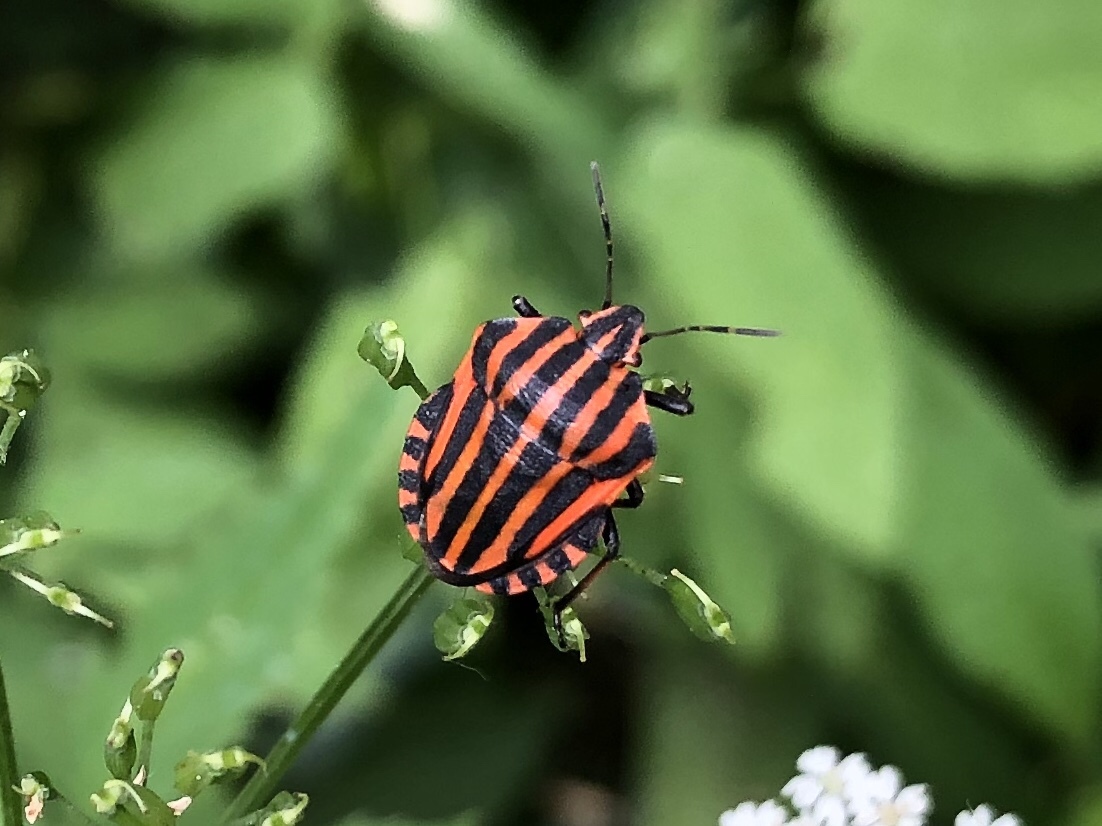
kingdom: Animalia
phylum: Arthropoda
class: Insecta
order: Hemiptera
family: Pentatomidae
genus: Graphosoma
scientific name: Graphosoma italicum
